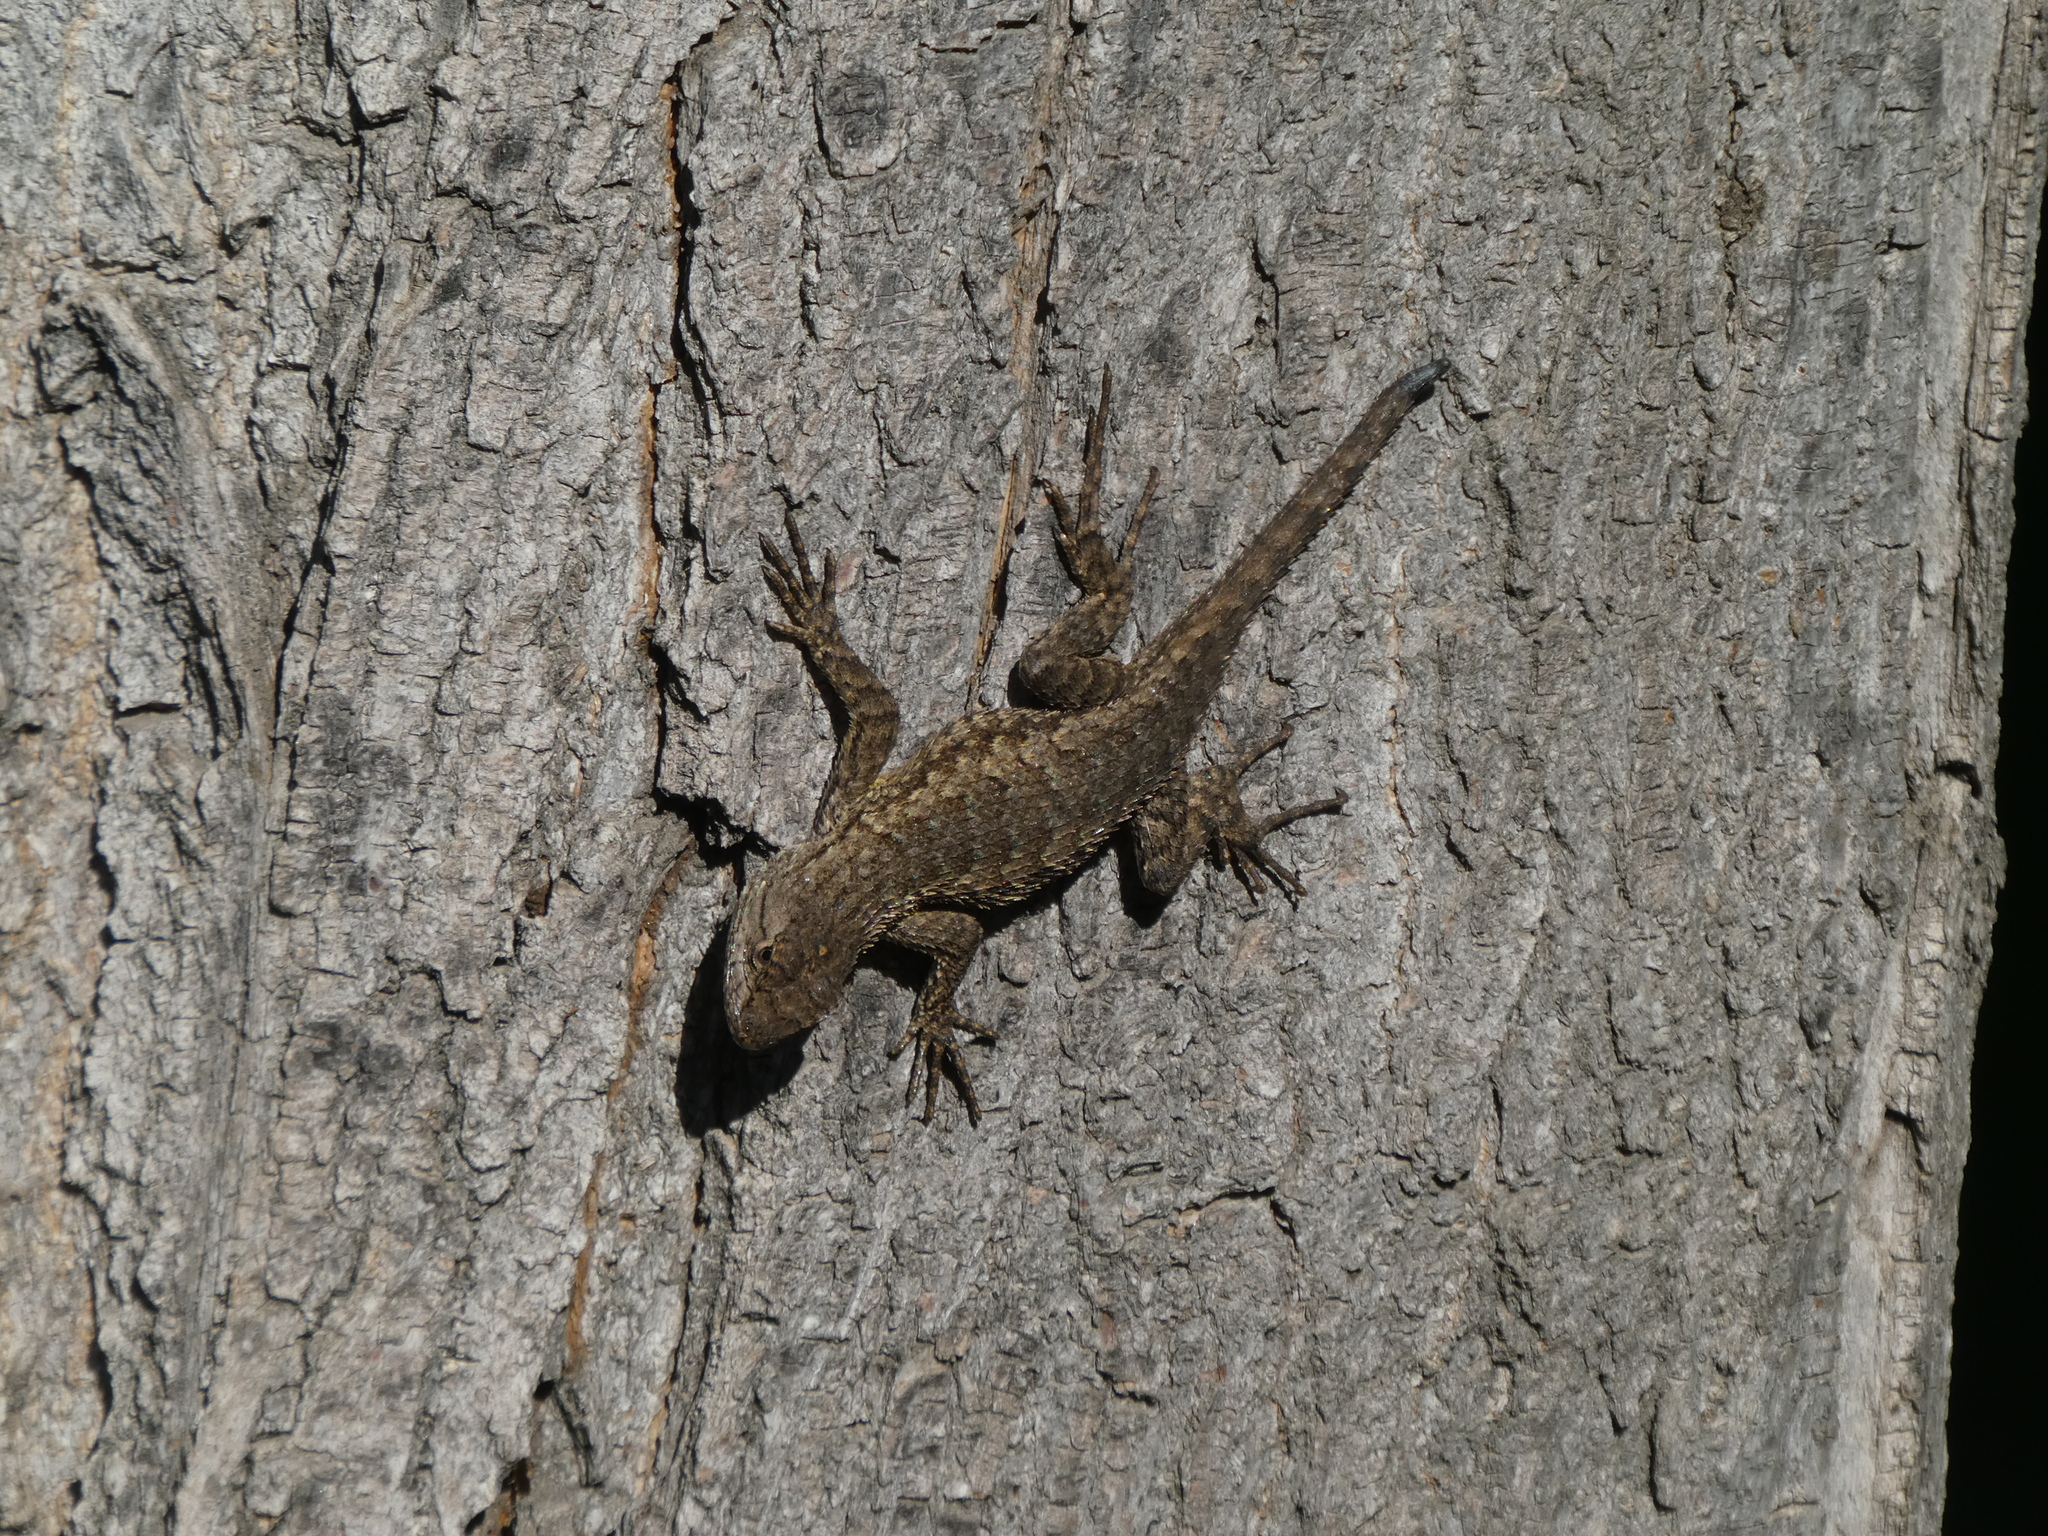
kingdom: Animalia
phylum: Chordata
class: Squamata
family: Phrynosomatidae
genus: Sceloporus
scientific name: Sceloporus occidentalis
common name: Western fence lizard
